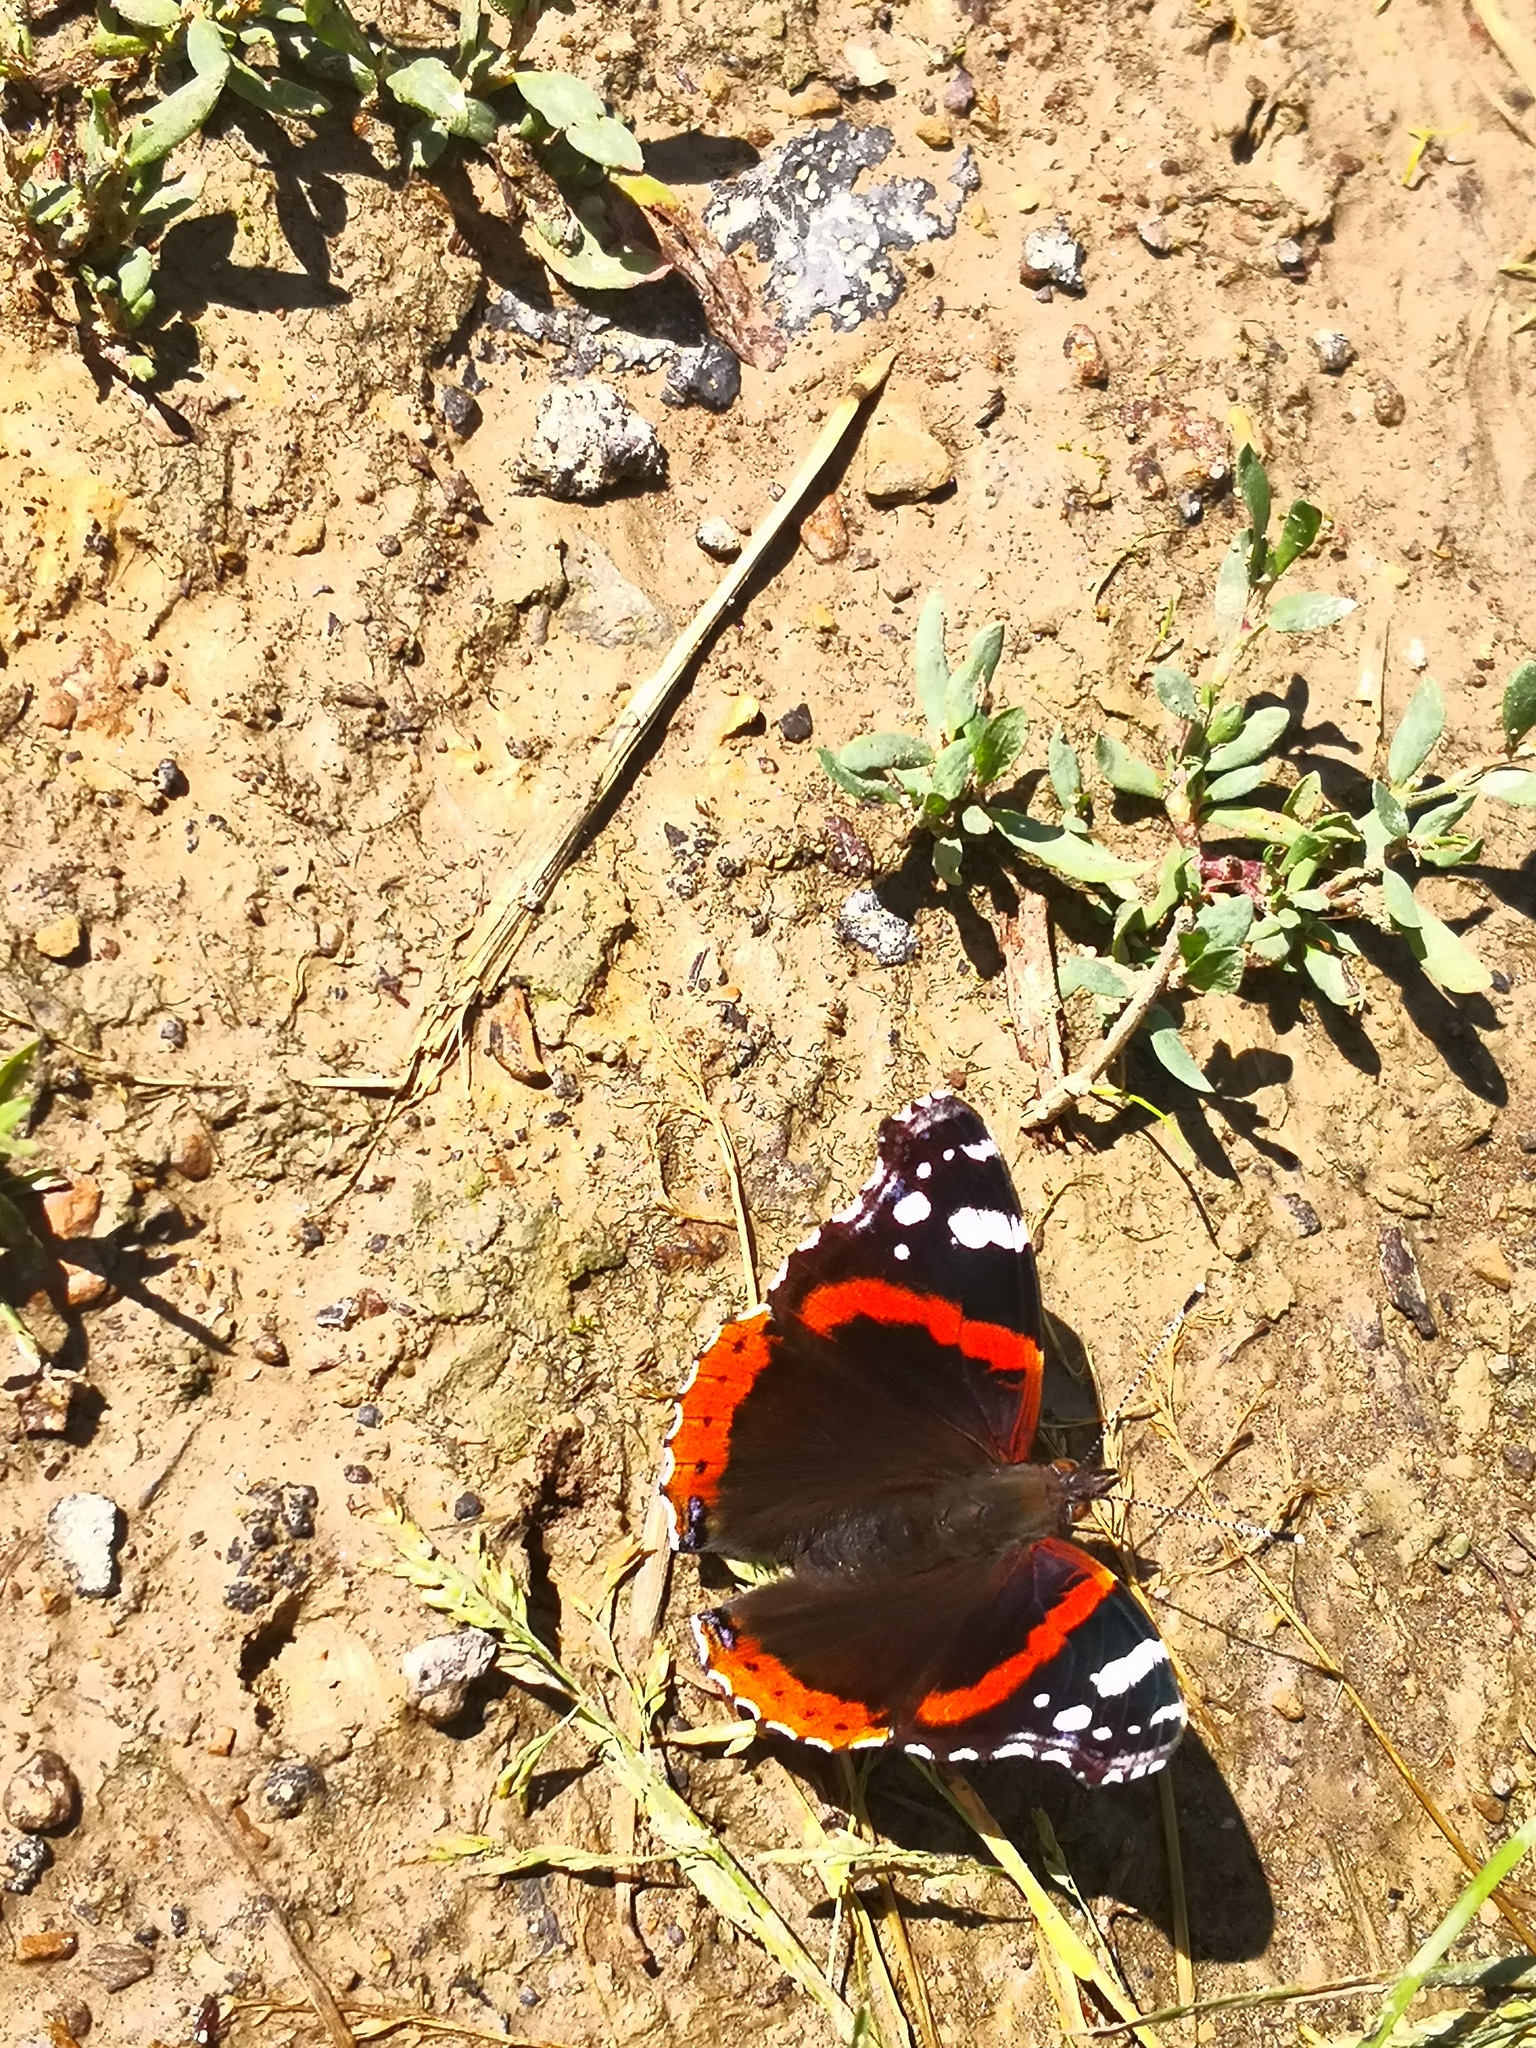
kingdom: Animalia
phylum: Arthropoda
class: Insecta
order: Lepidoptera
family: Nymphalidae
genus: Vanessa
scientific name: Vanessa atalanta
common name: Red admiral
